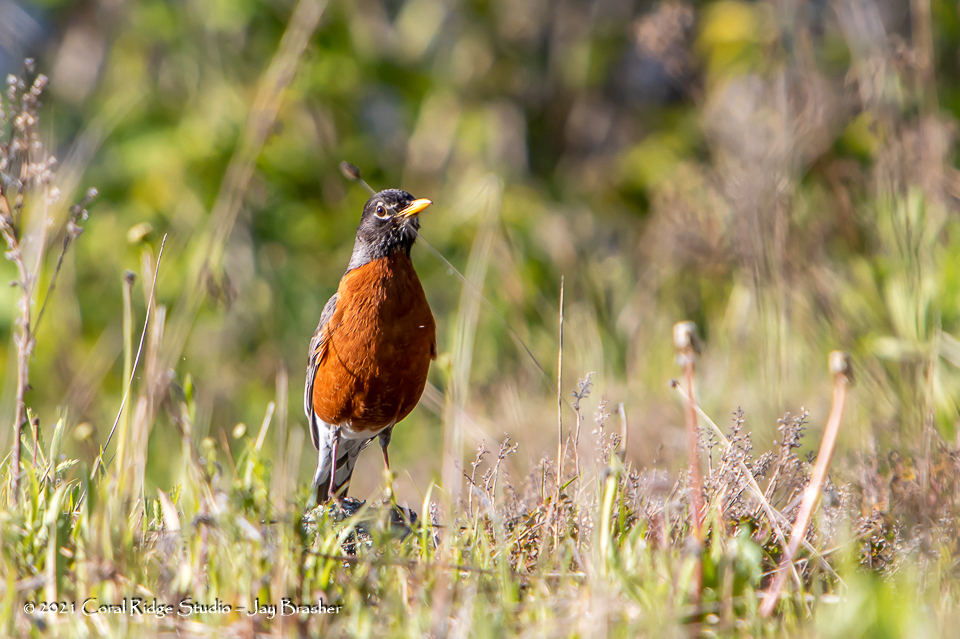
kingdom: Animalia
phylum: Chordata
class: Aves
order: Passeriformes
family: Turdidae
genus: Turdus
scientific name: Turdus migratorius
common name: American robin
